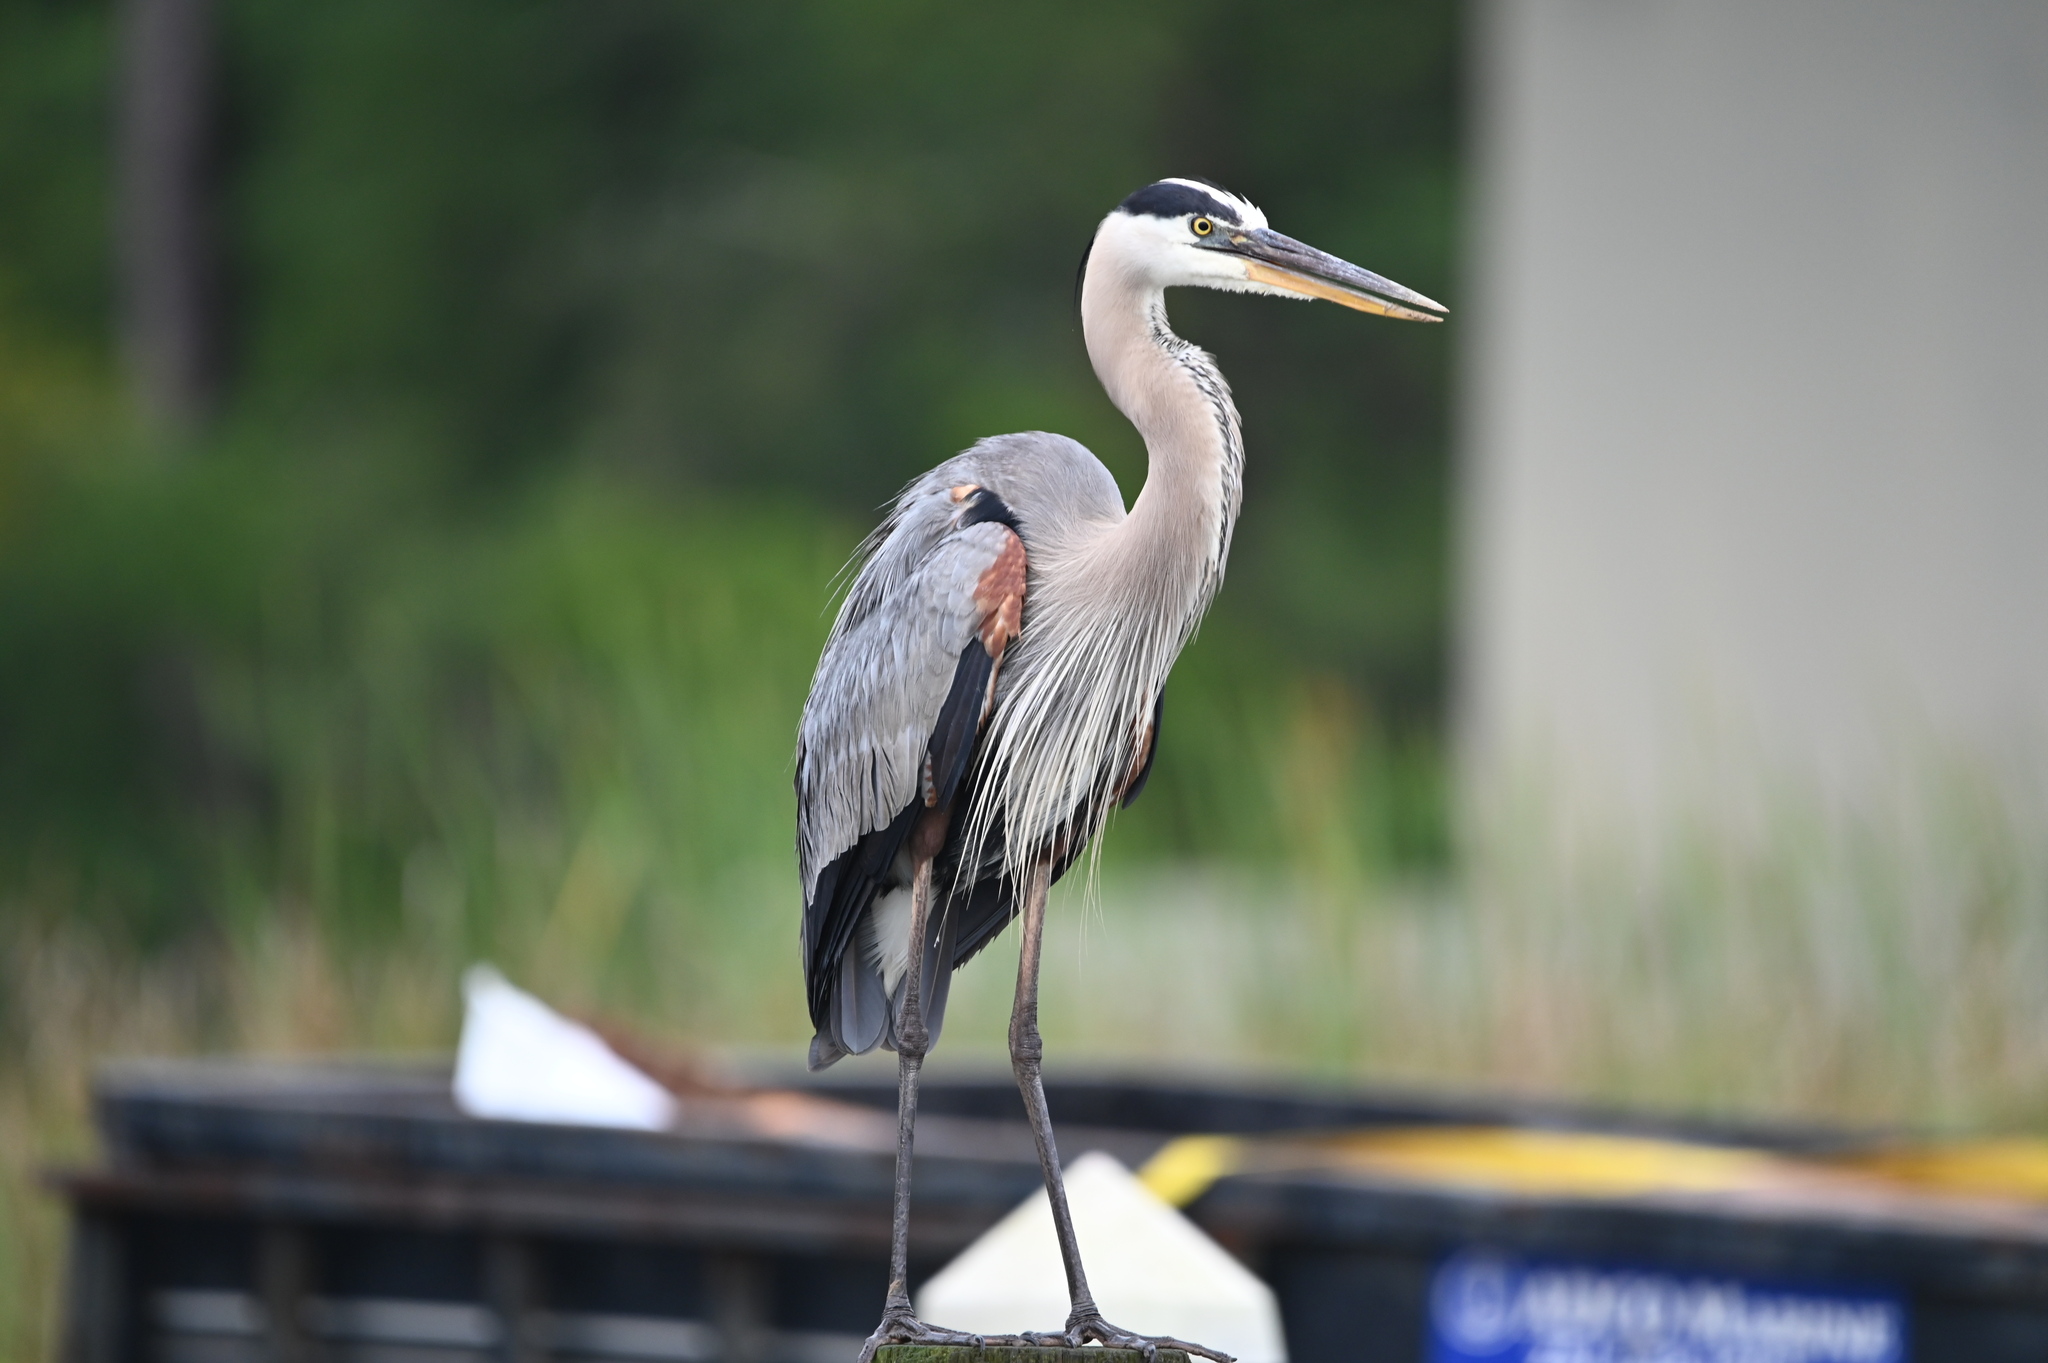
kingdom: Animalia
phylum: Chordata
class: Aves
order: Pelecaniformes
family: Ardeidae
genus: Ardea
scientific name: Ardea herodias
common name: Great blue heron
